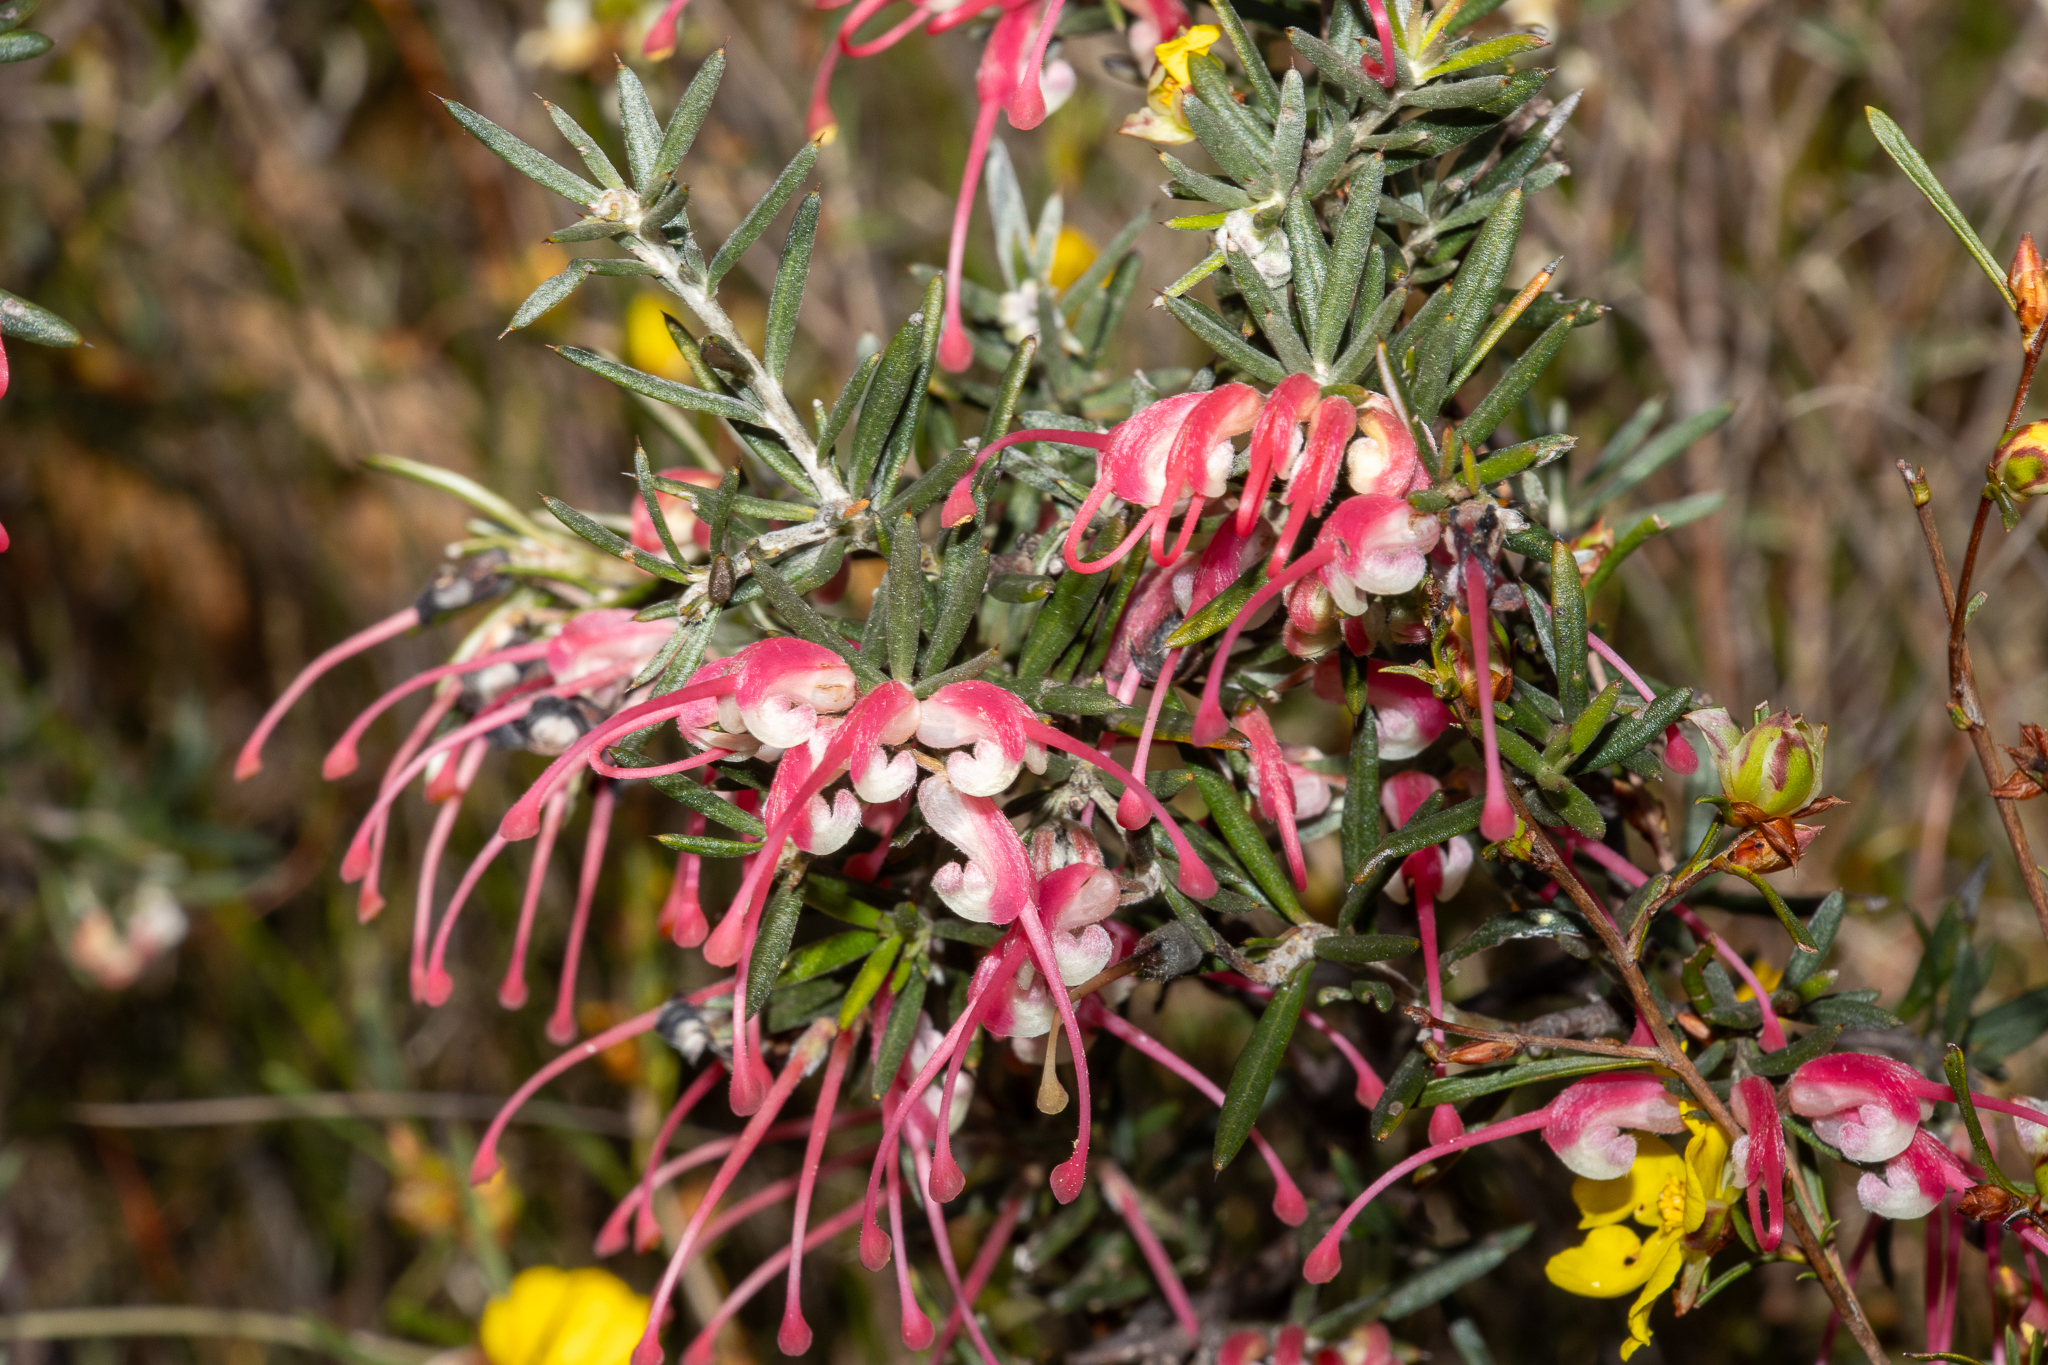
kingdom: Plantae
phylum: Tracheophyta
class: Magnoliopsida
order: Proteales
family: Proteaceae
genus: Grevillea
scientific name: Grevillea lavandulacea
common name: Lavender grevillea
